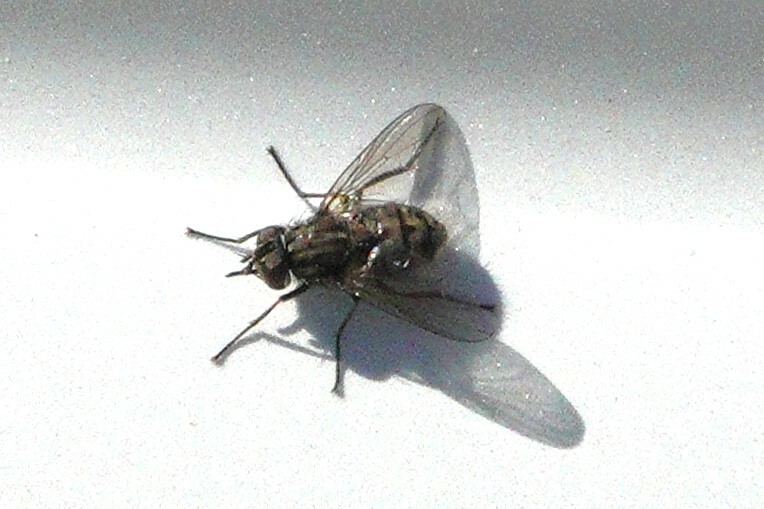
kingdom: Animalia
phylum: Arthropoda
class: Insecta
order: Diptera
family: Muscidae
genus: Stomoxys
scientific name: Stomoxys calcitrans
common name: Stable fly
